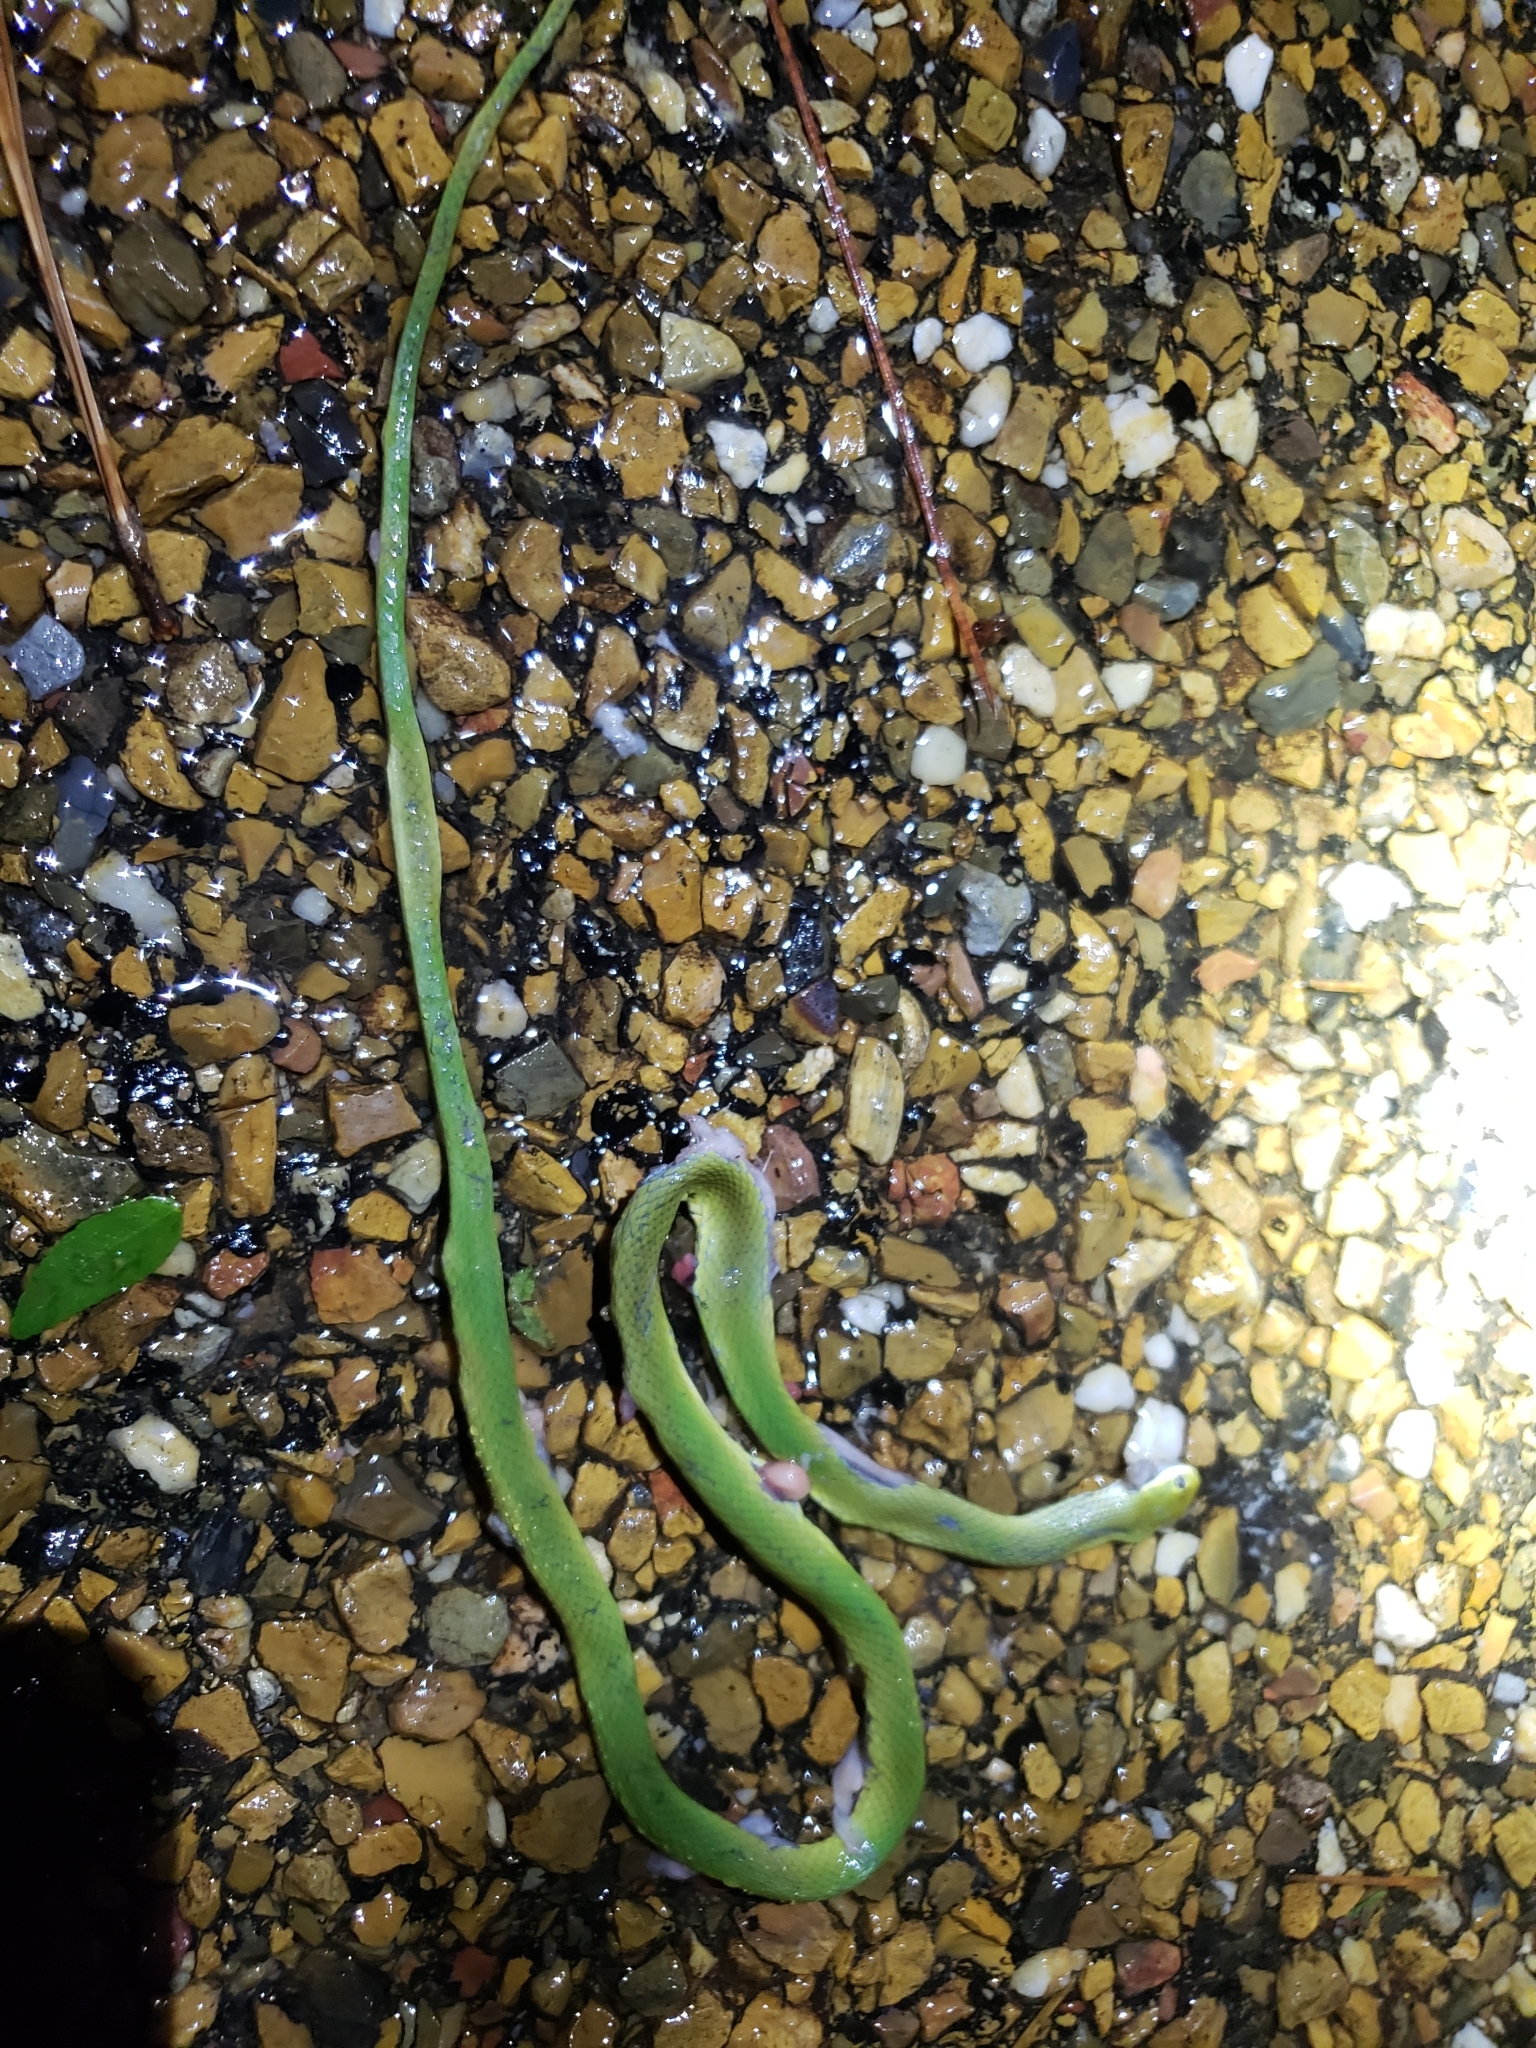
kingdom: Animalia
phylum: Chordata
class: Squamata
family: Colubridae
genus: Opheodrys
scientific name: Opheodrys aestivus
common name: Rough greensnake
